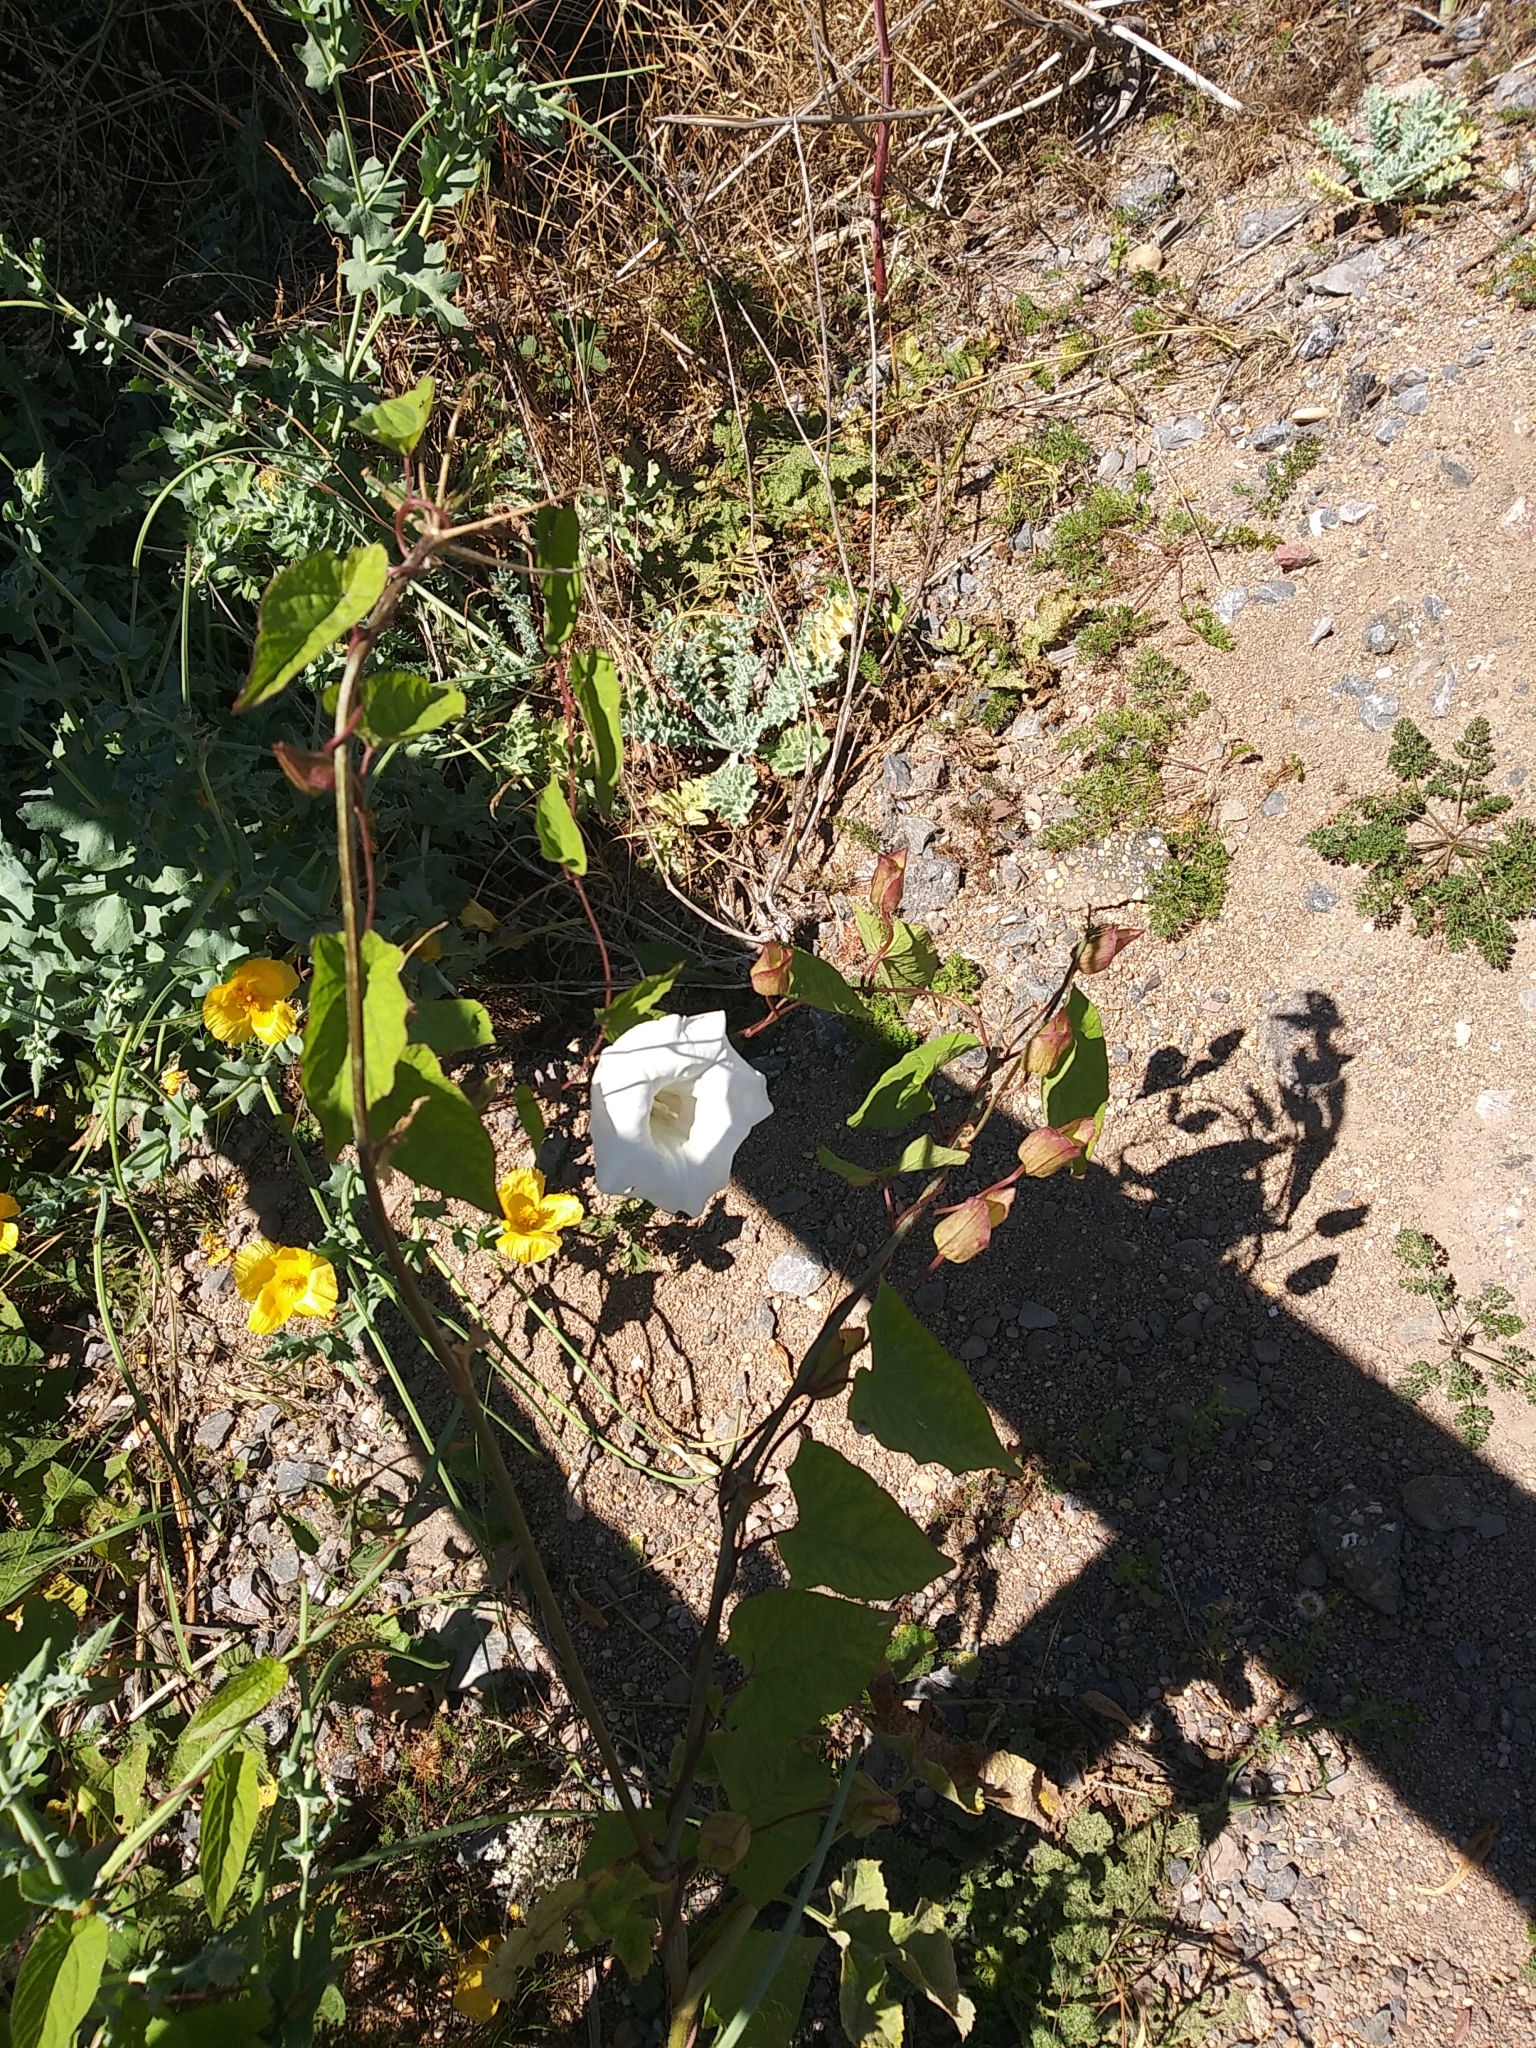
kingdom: Plantae
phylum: Tracheophyta
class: Magnoliopsida
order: Solanales
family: Convolvulaceae
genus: Calystegia
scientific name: Calystegia silvatica
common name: Large bindweed
